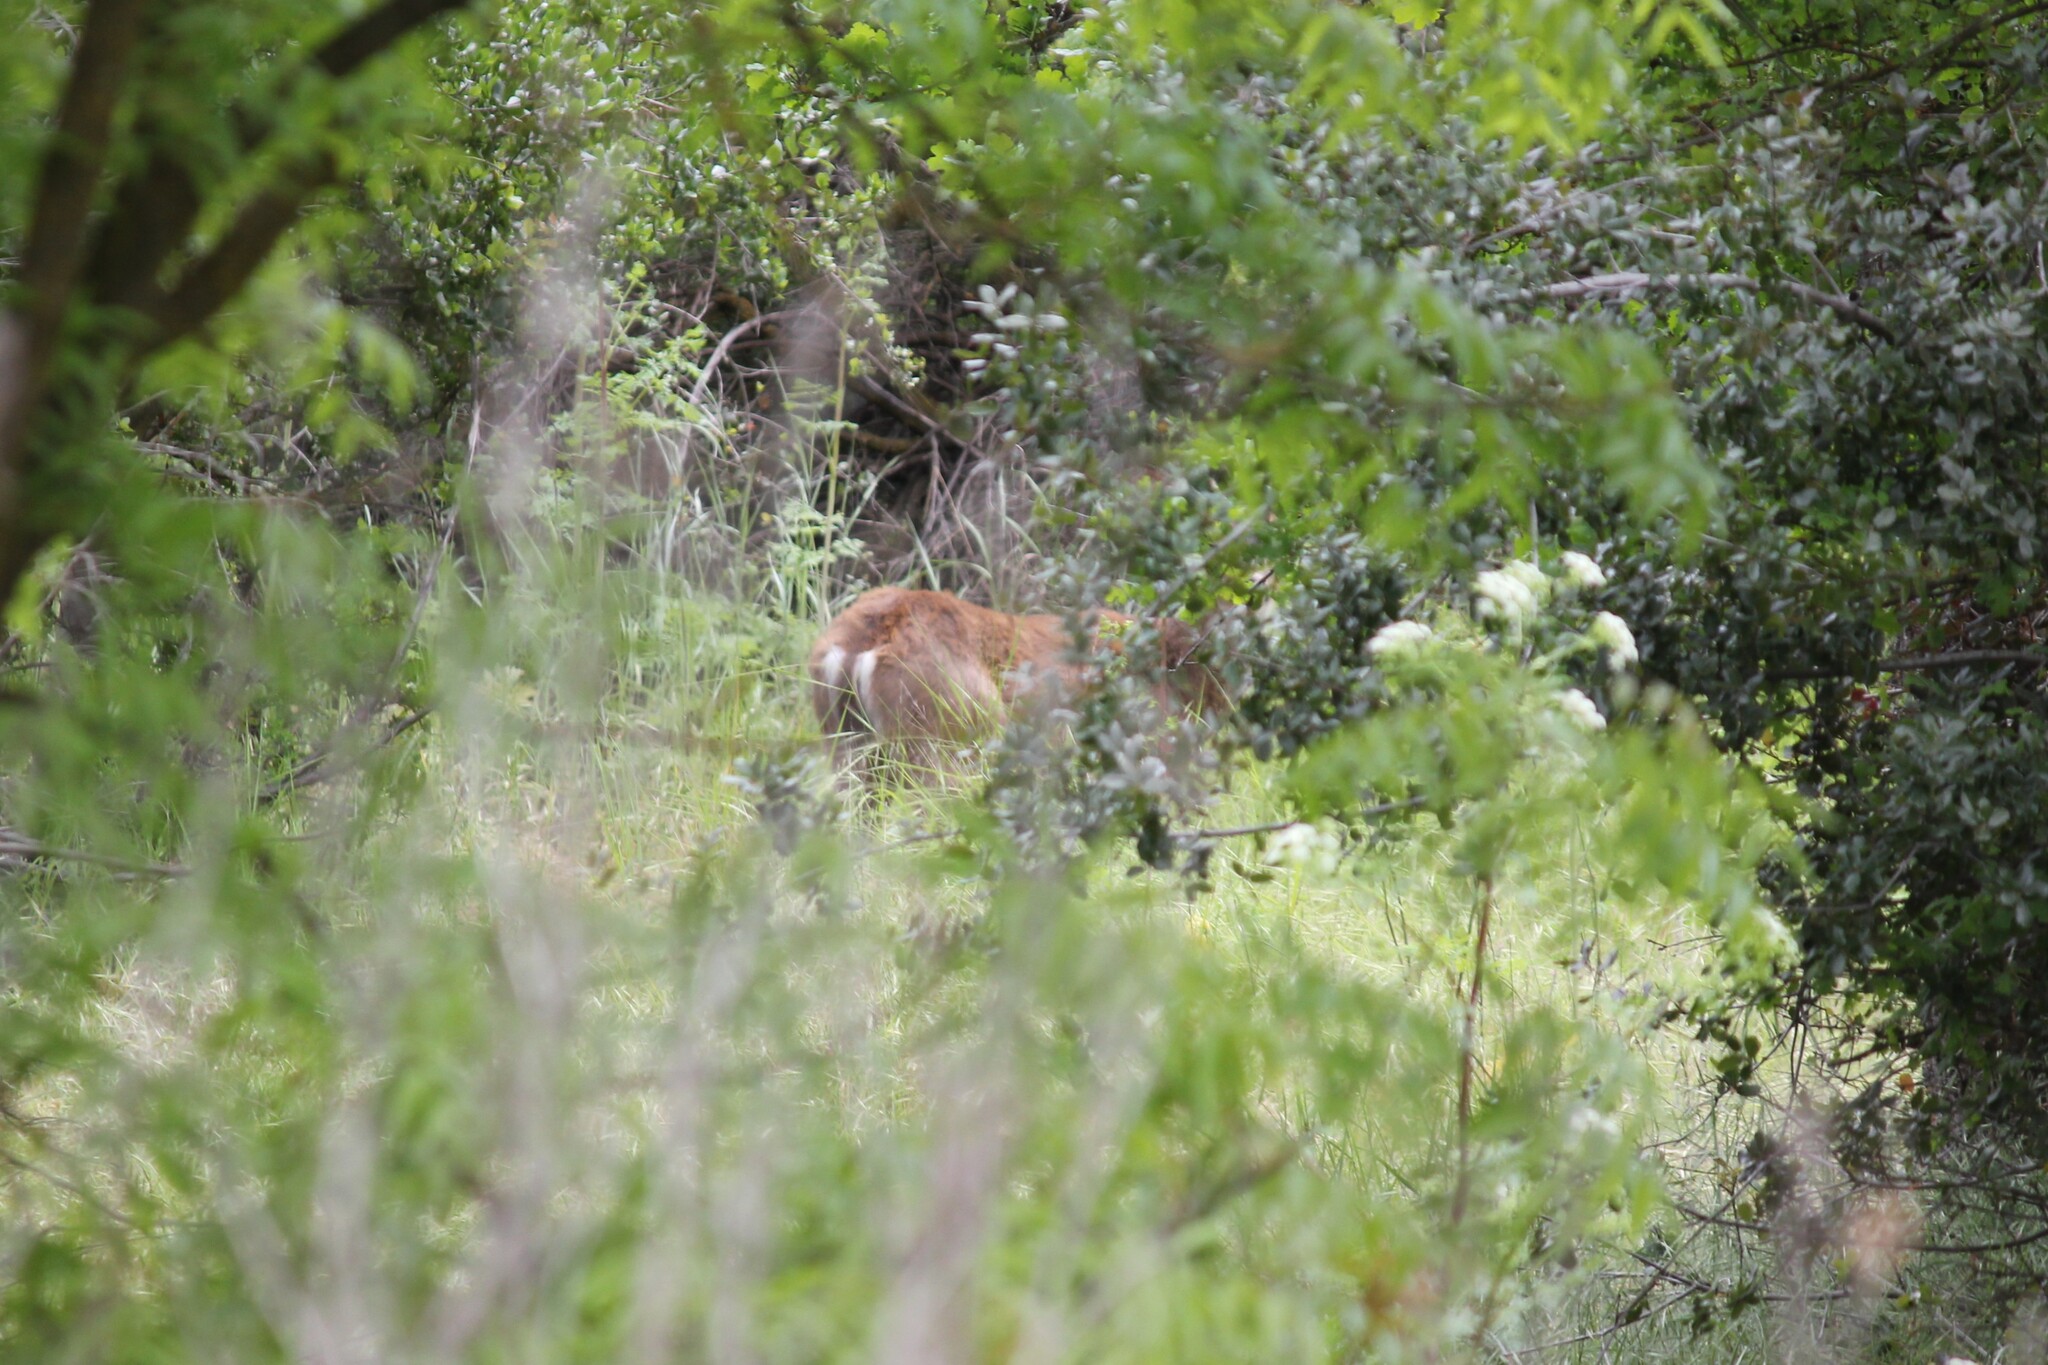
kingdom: Animalia
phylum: Chordata
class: Mammalia
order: Artiodactyla
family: Cervidae
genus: Odocoileus
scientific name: Odocoileus hemionus
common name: Mule deer
